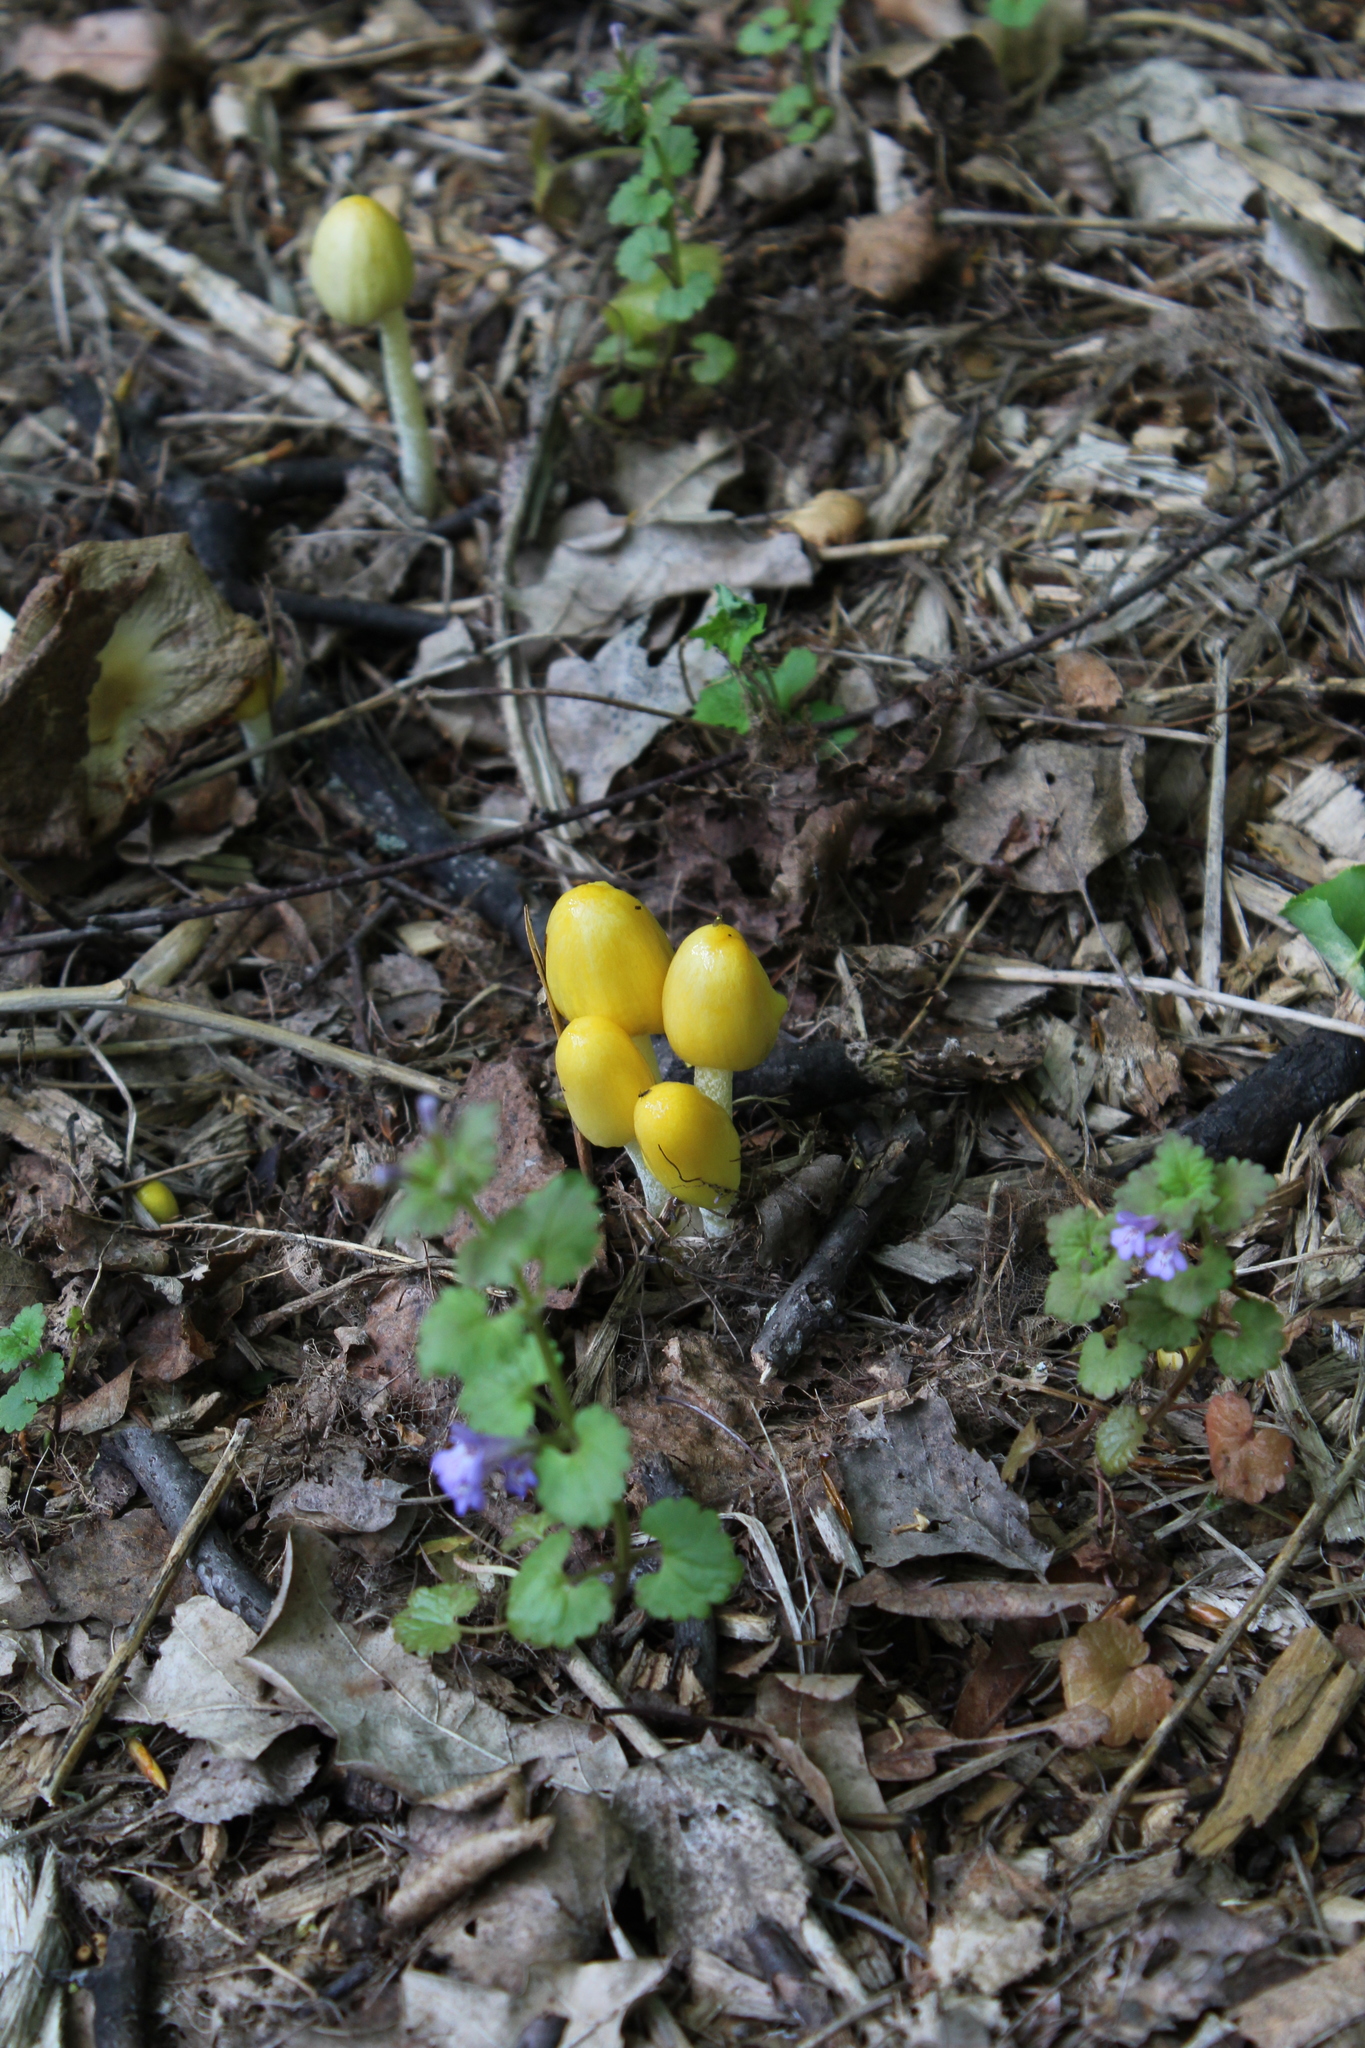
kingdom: Fungi
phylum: Basidiomycota
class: Agaricomycetes
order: Agaricales
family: Bolbitiaceae
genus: Bolbitius
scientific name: Bolbitius titubans
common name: Yellow fieldcap
